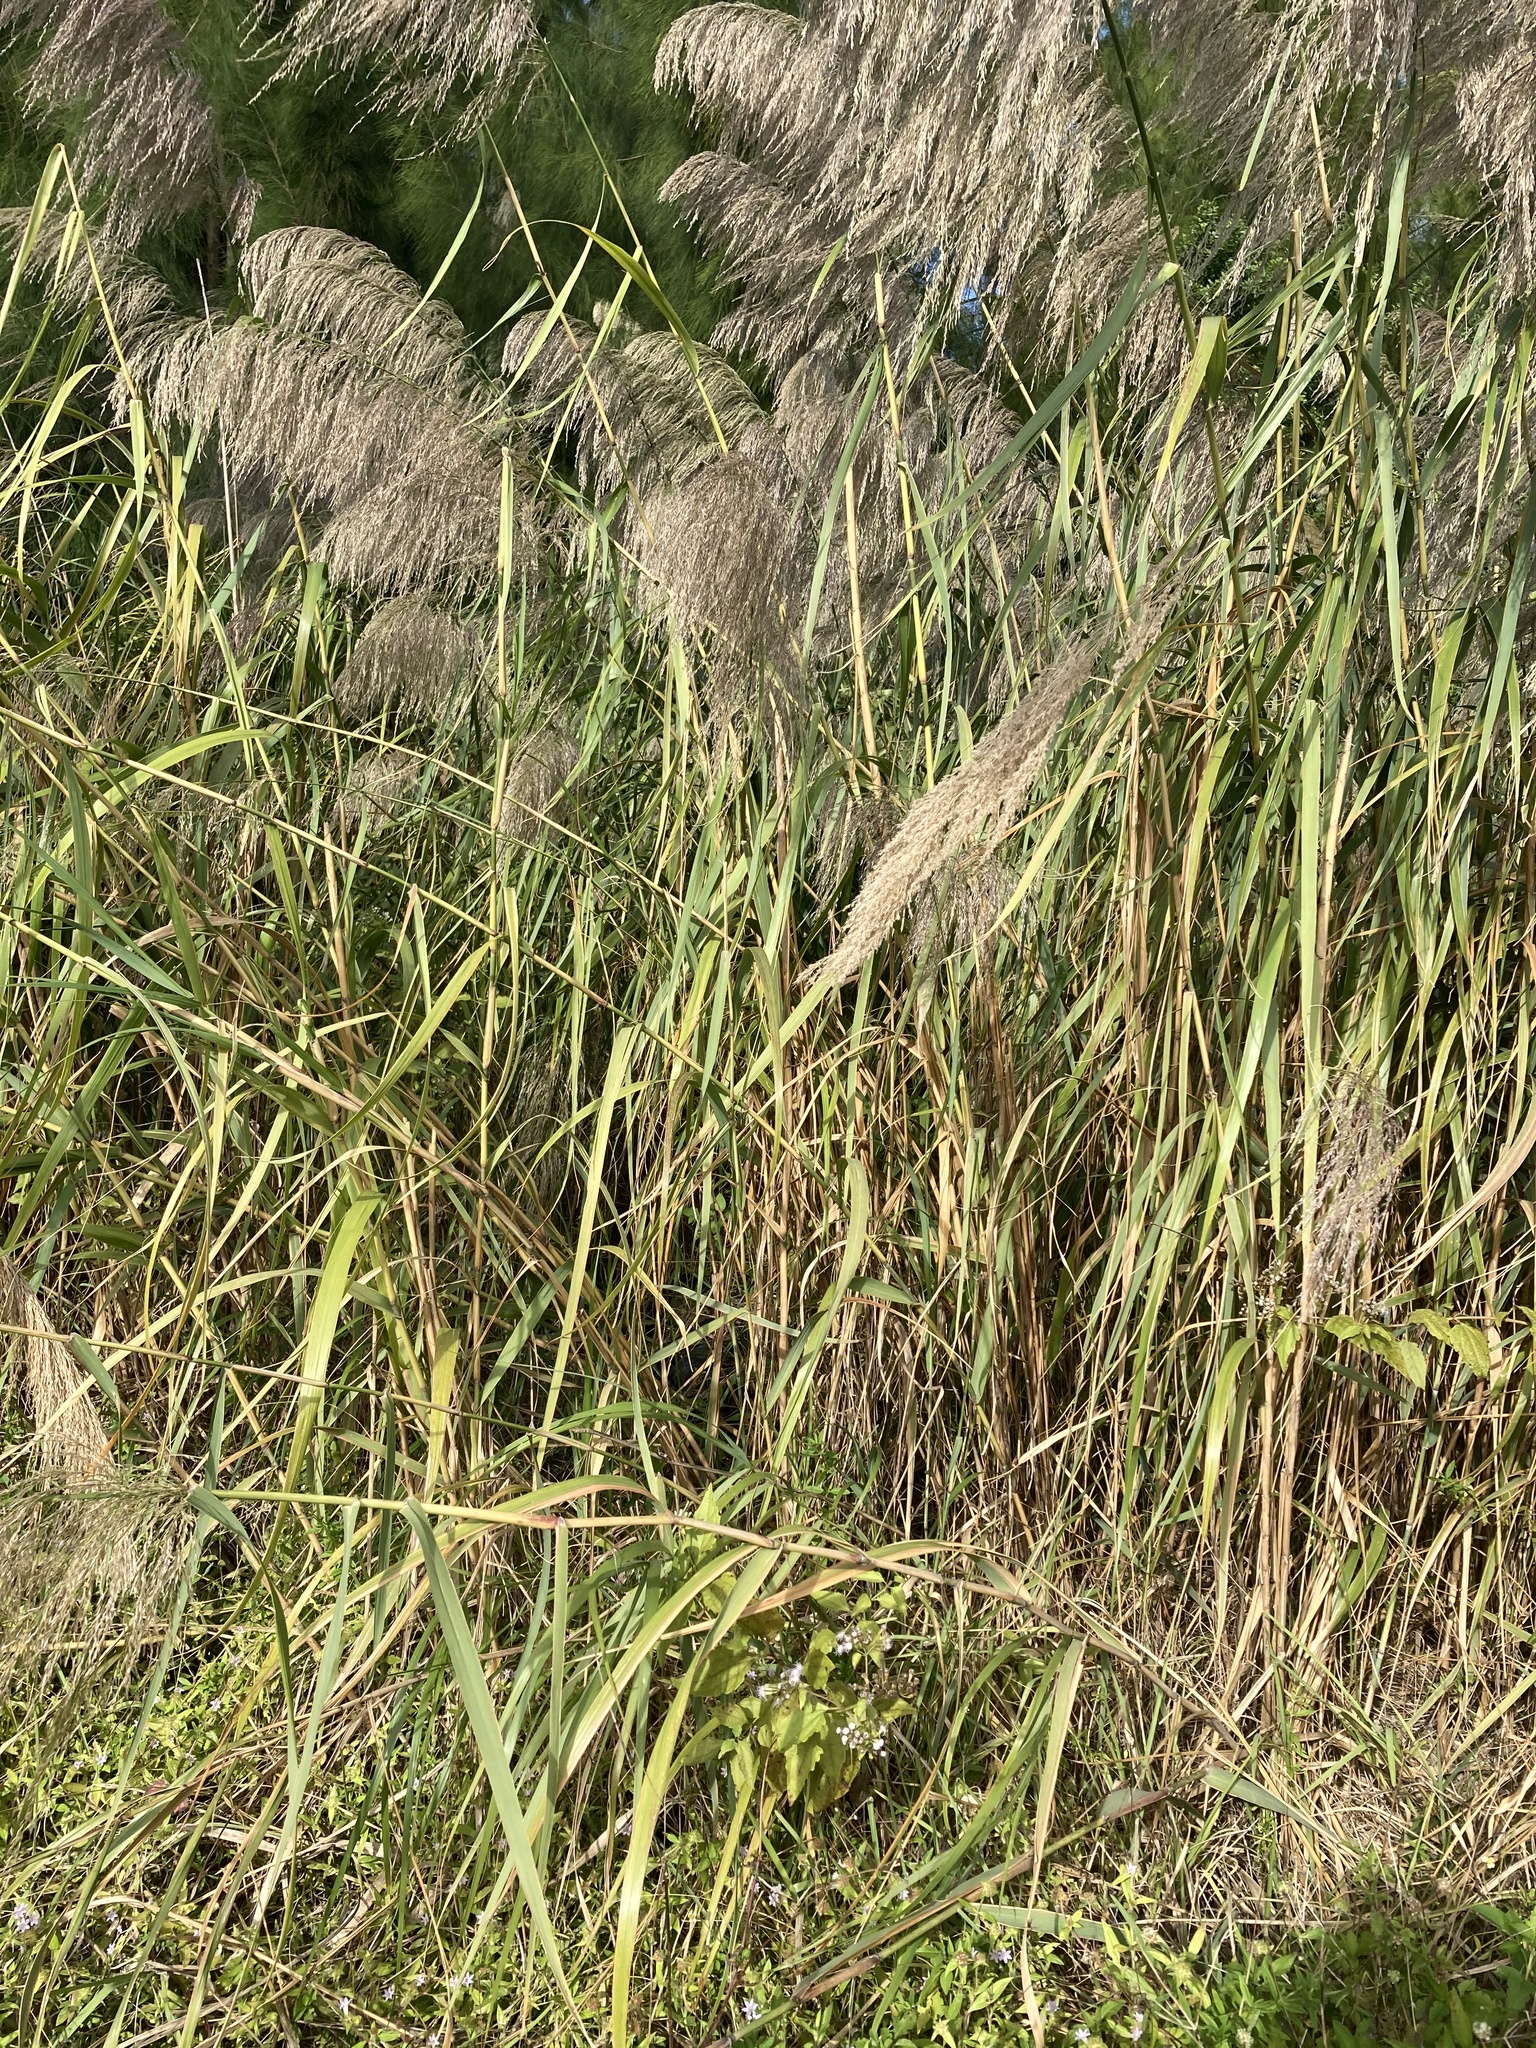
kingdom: Plantae
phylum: Tracheophyta
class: Liliopsida
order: Poales
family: Poaceae
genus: Neyraudia
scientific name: Neyraudia reynaudiana
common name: Silkreed
